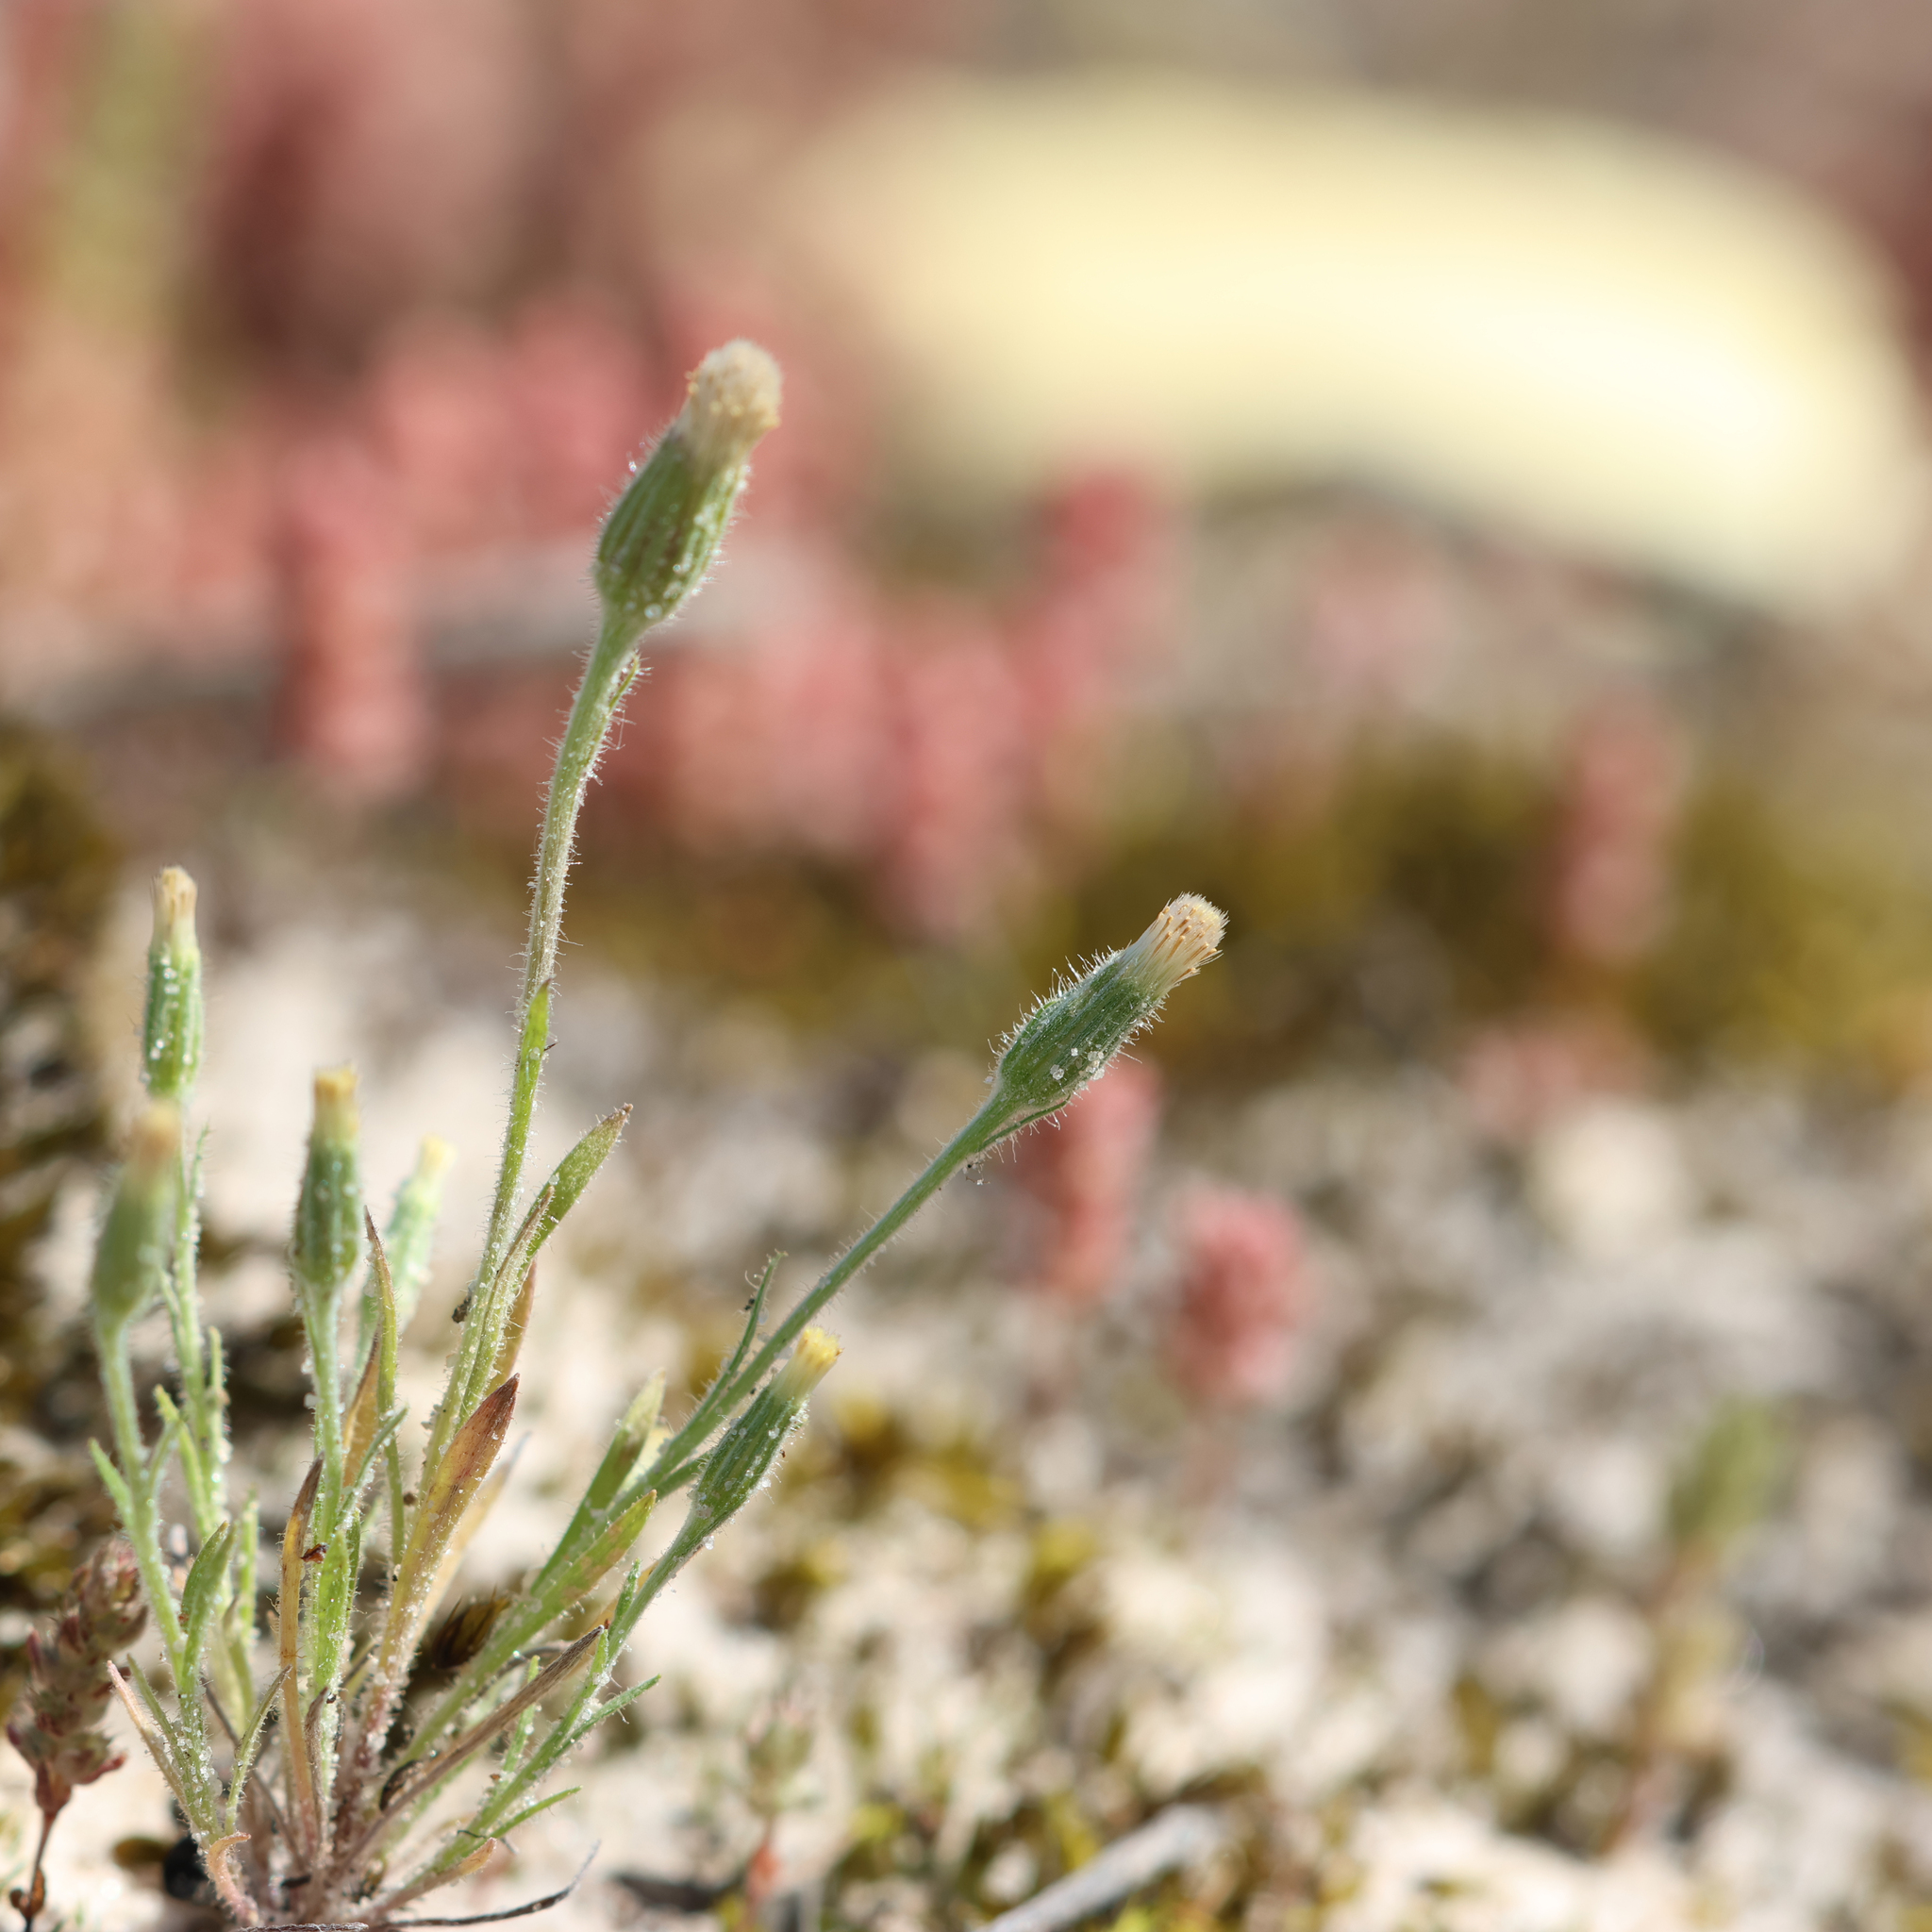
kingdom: Plantae
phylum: Tracheophyta
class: Magnoliopsida
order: Asterales
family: Asteraceae
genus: Millotia
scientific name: Millotia tenuifolia
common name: Soft millotia
